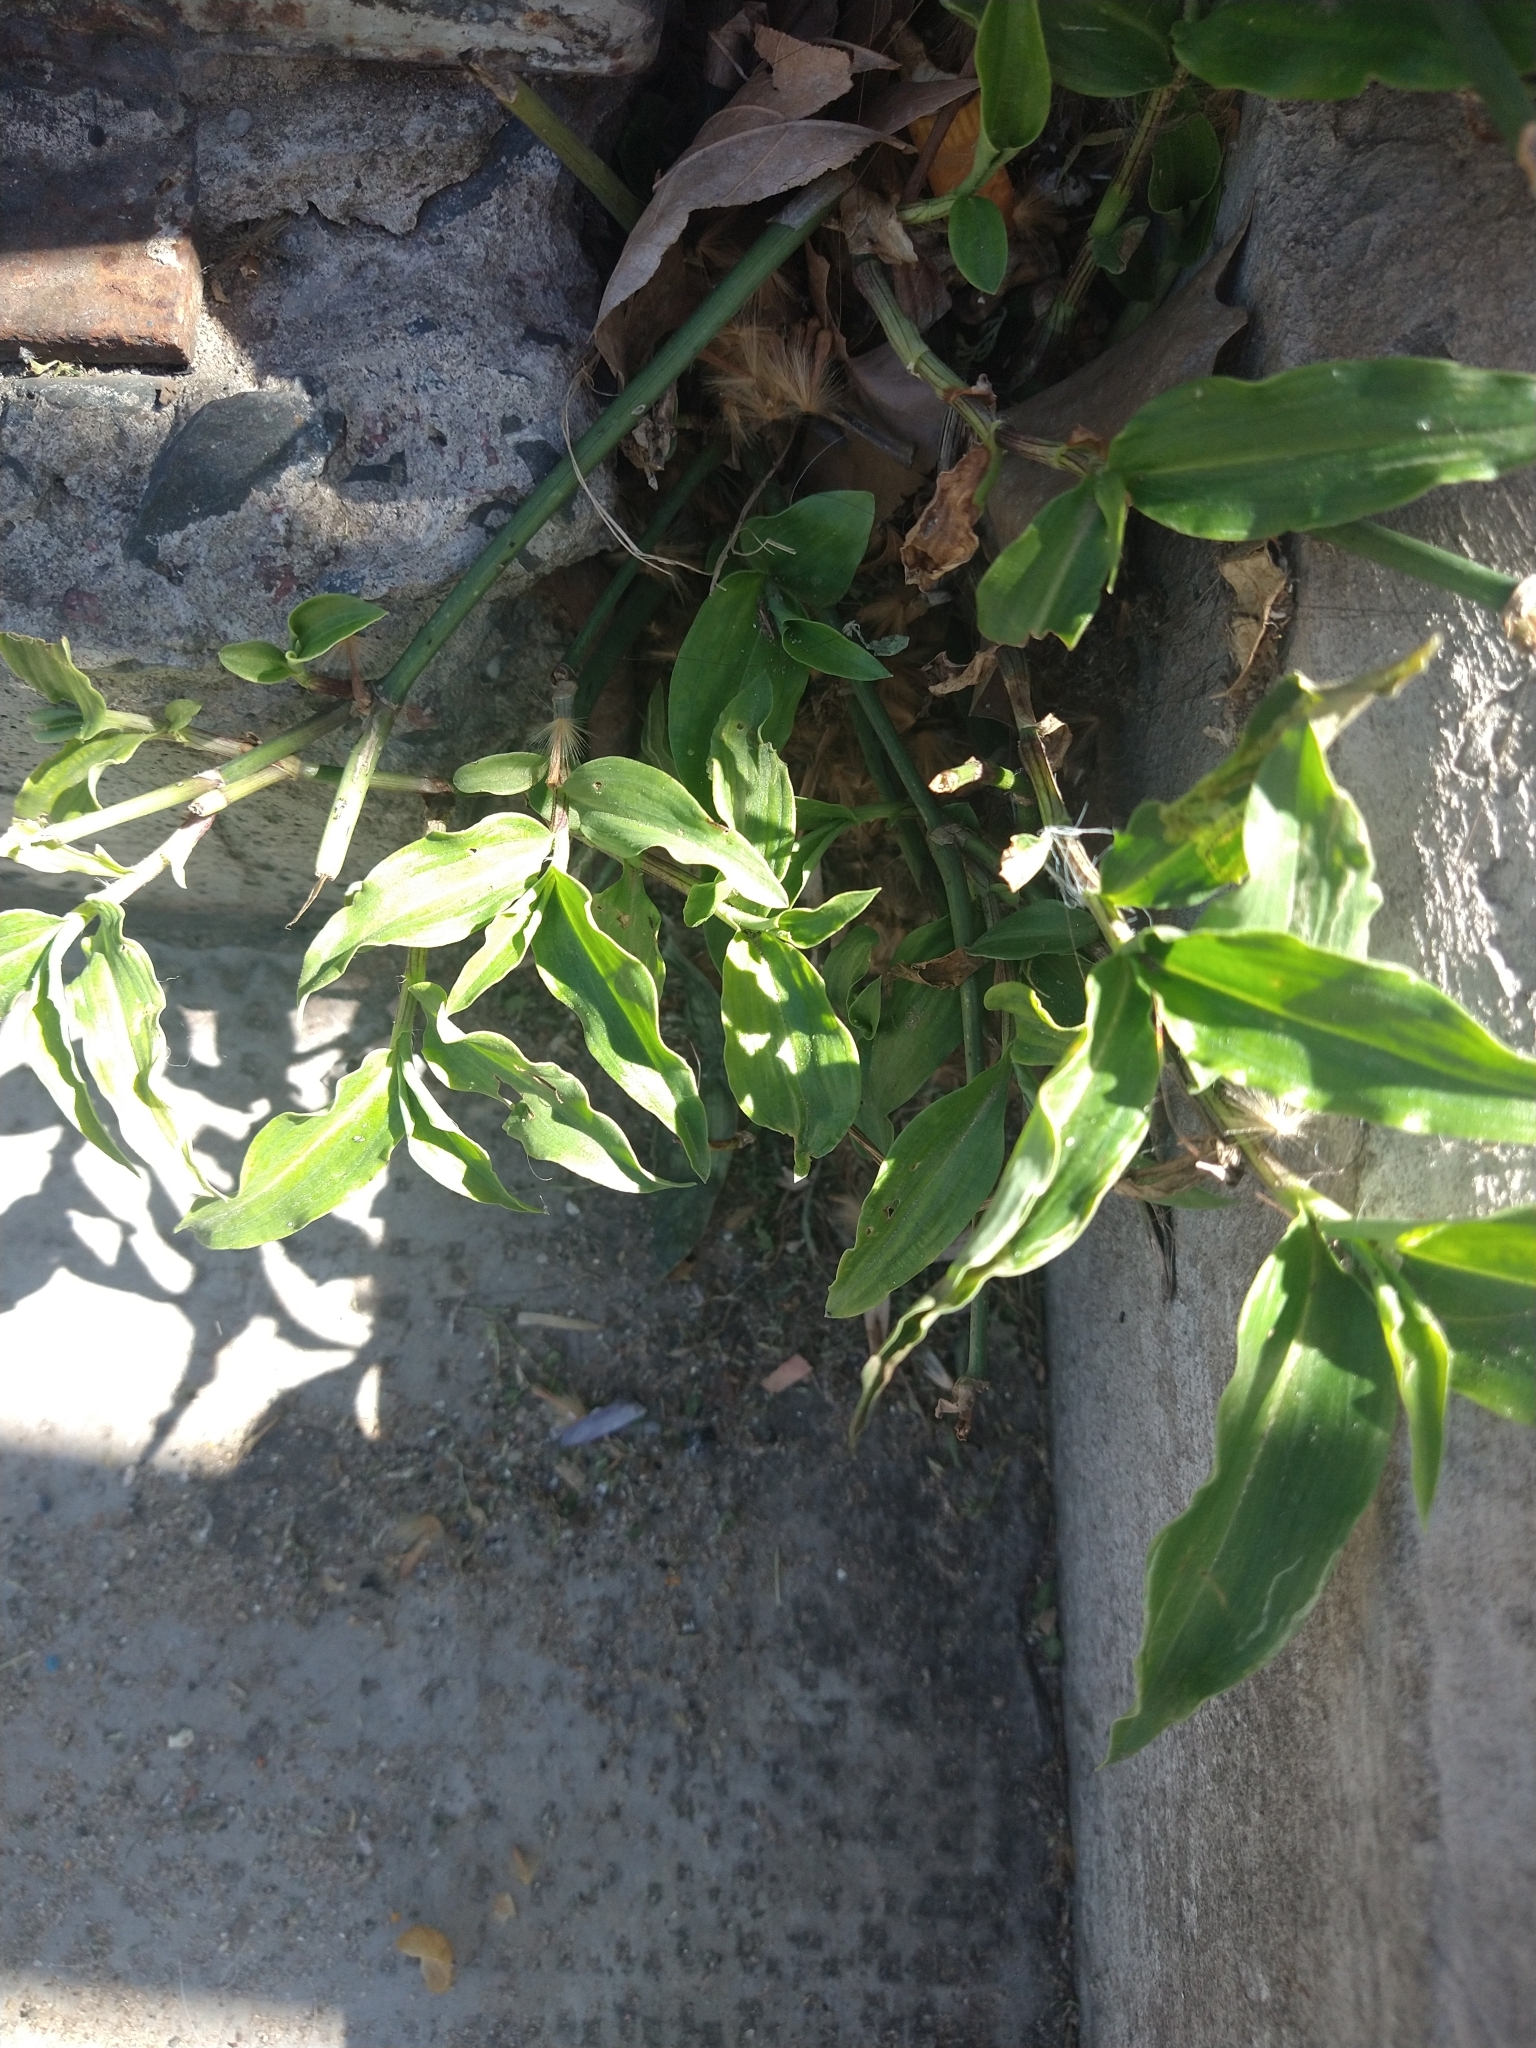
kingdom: Plantae
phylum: Tracheophyta
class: Liliopsida
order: Commelinales
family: Commelinaceae
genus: Commelina
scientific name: Commelina erecta
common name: Blousel blommetjie
